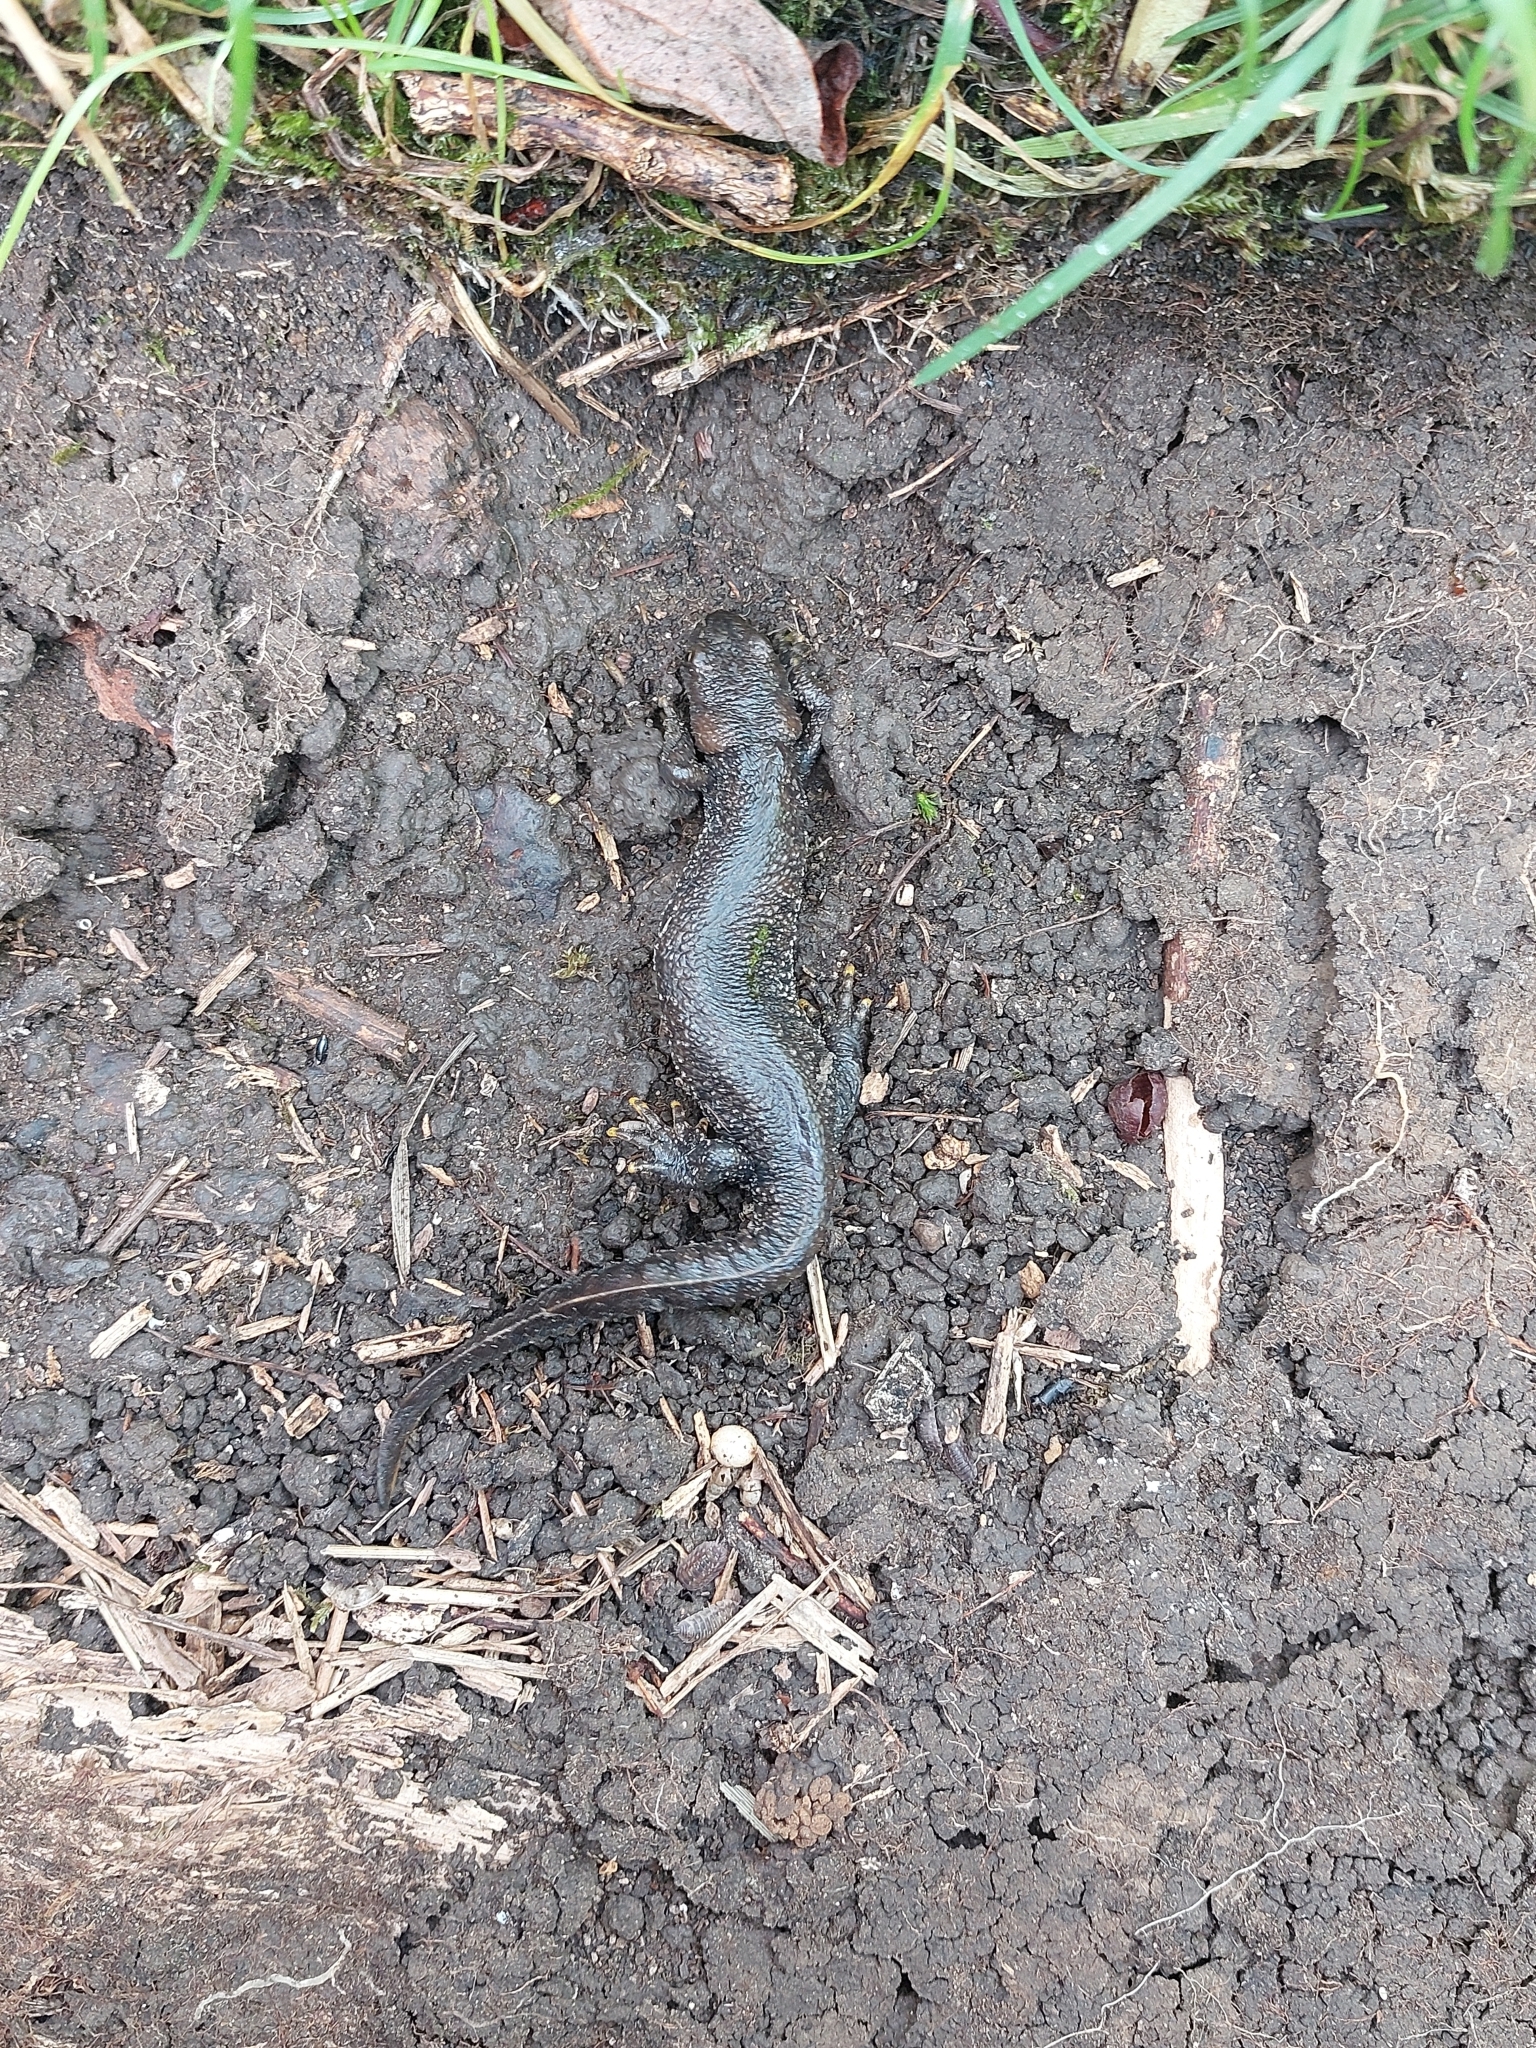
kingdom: Animalia
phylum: Chordata
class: Amphibia
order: Caudata
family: Salamandridae
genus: Triturus
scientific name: Triturus cristatus
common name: Crested newt
